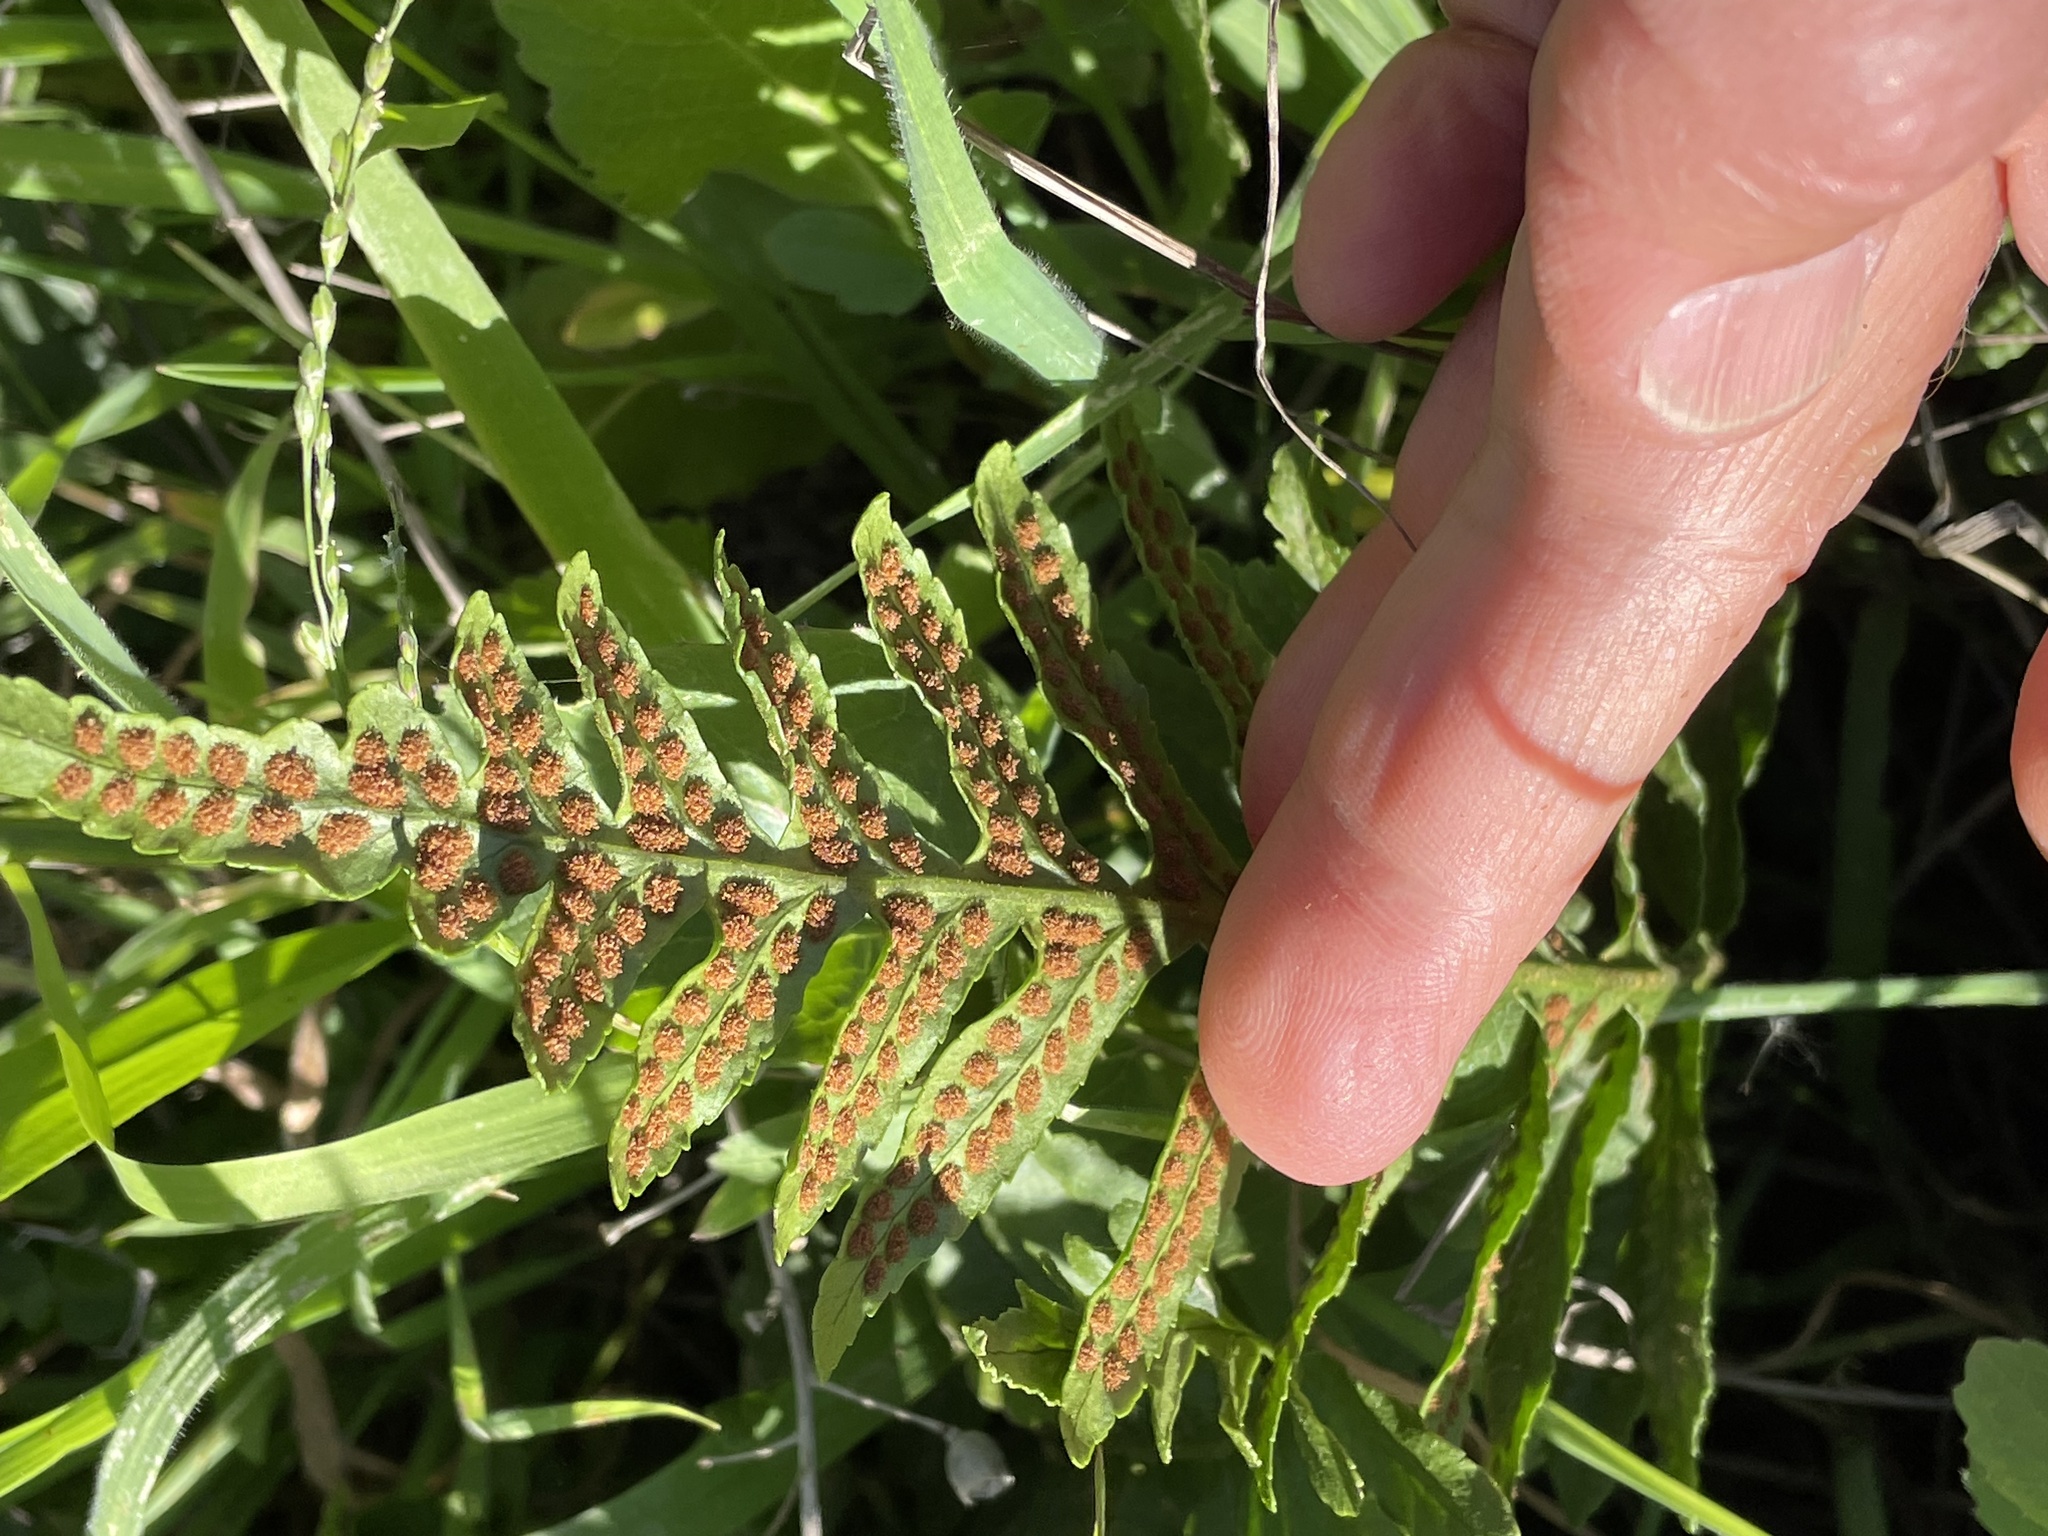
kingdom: Plantae
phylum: Tracheophyta
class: Polypodiopsida
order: Polypodiales
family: Polypodiaceae
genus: Polypodium
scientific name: Polypodium californicum
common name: California polypody
